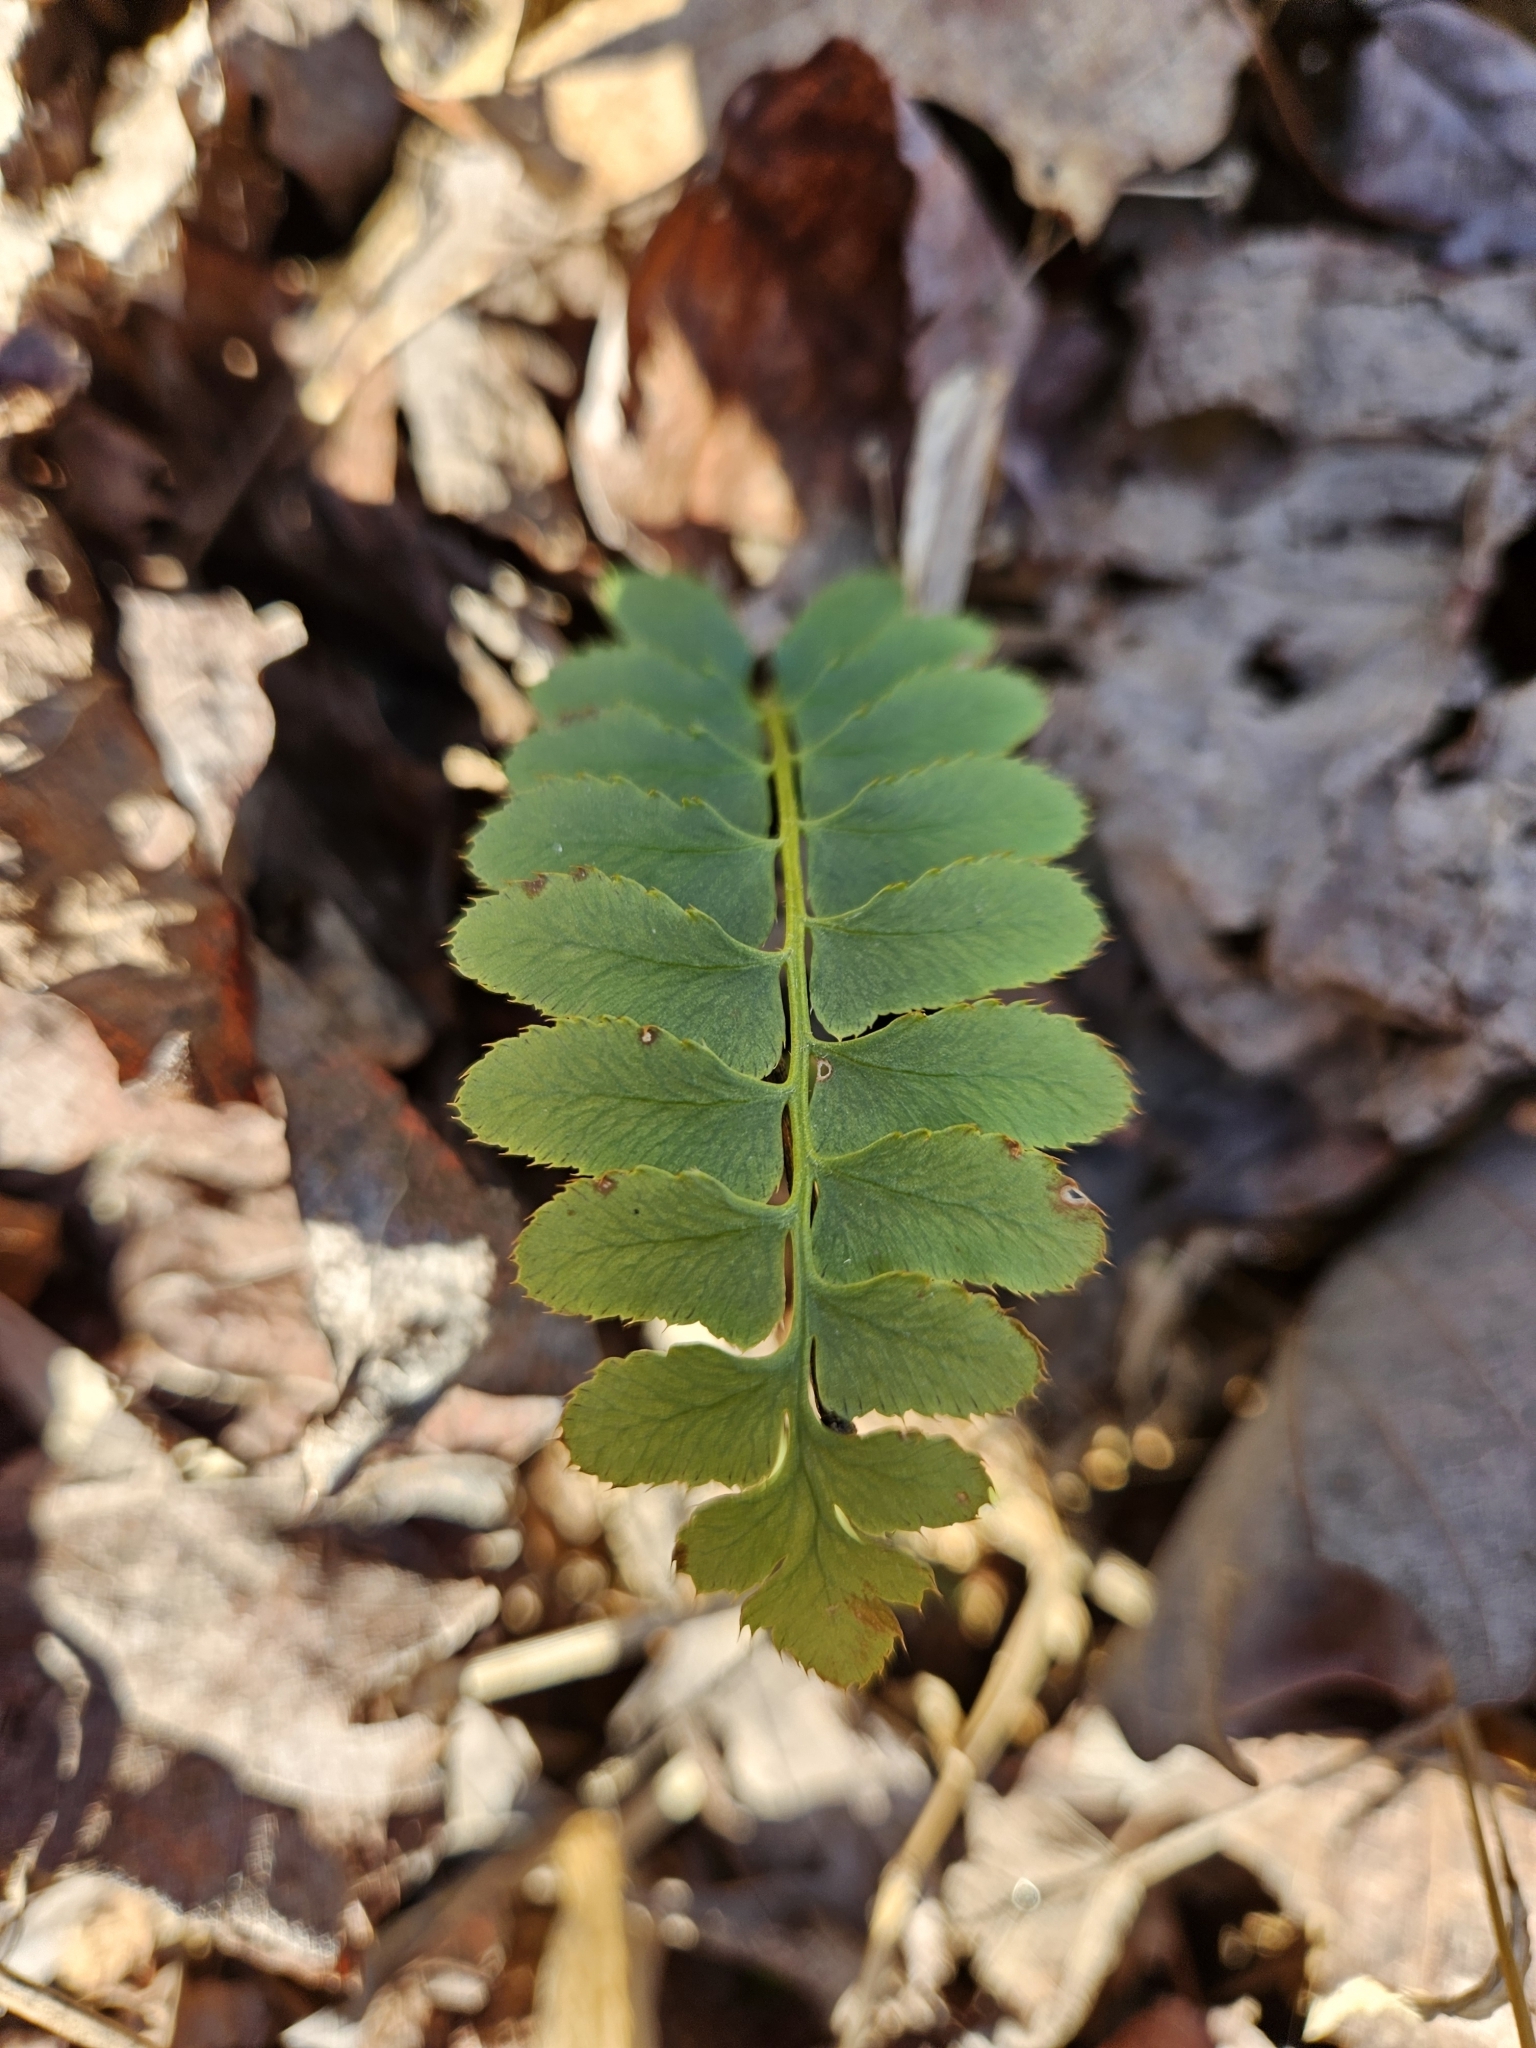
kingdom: Plantae
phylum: Tracheophyta
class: Polypodiopsida
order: Polypodiales
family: Dryopteridaceae
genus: Polystichum
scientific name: Polystichum acrostichoides
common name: Christmas fern
